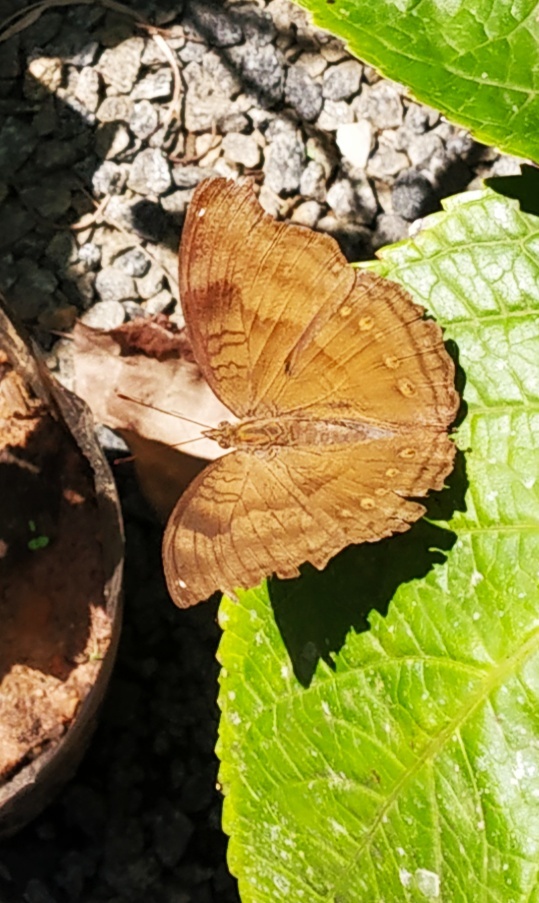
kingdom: Animalia
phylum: Arthropoda
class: Insecta
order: Lepidoptera
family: Nymphalidae
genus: Junonia
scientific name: Junonia iphita
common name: Chocolate pansy
